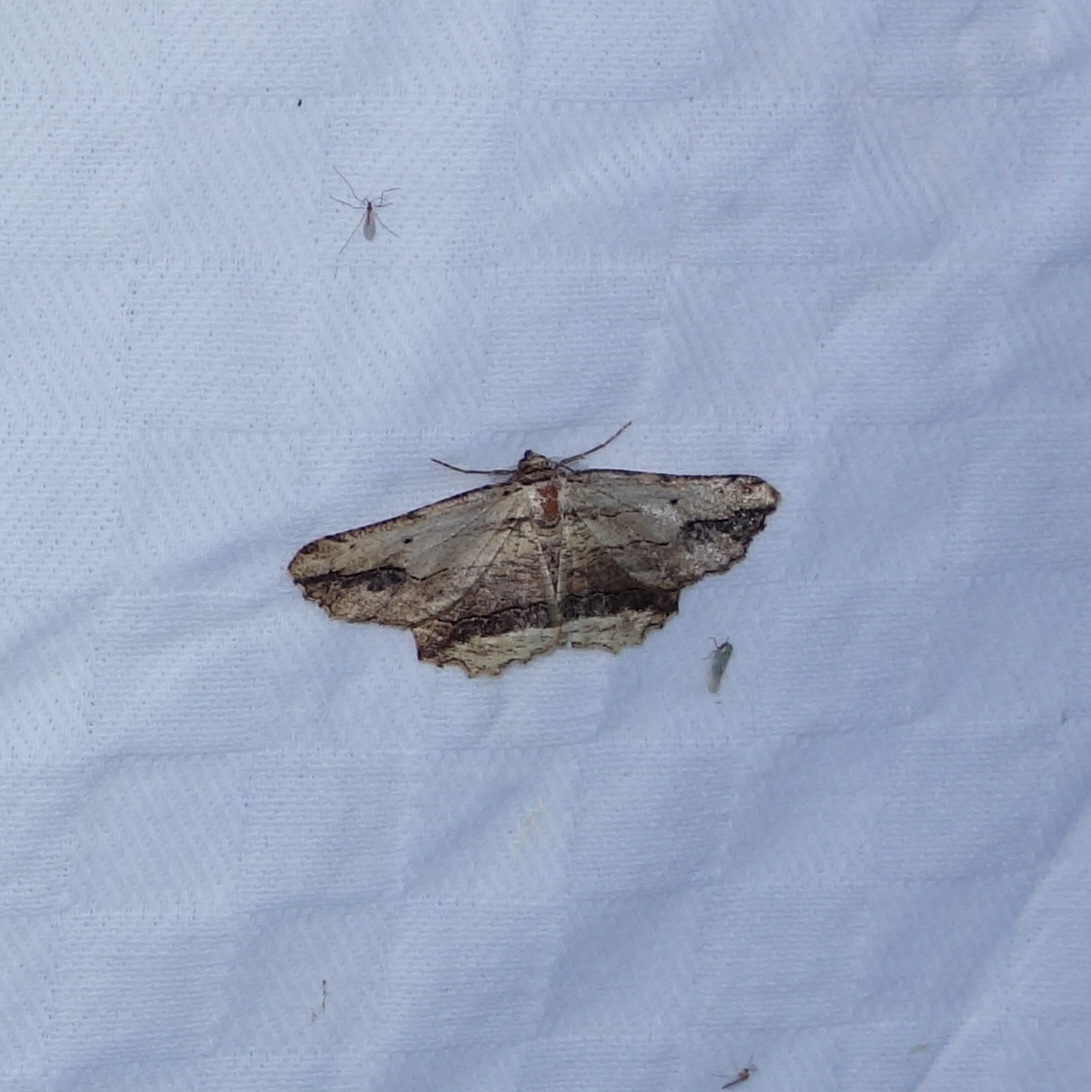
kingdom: Animalia
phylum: Arthropoda
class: Insecta
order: Lepidoptera
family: Geometridae
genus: Menophra
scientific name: Menophra abruptaria
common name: Waved umber
